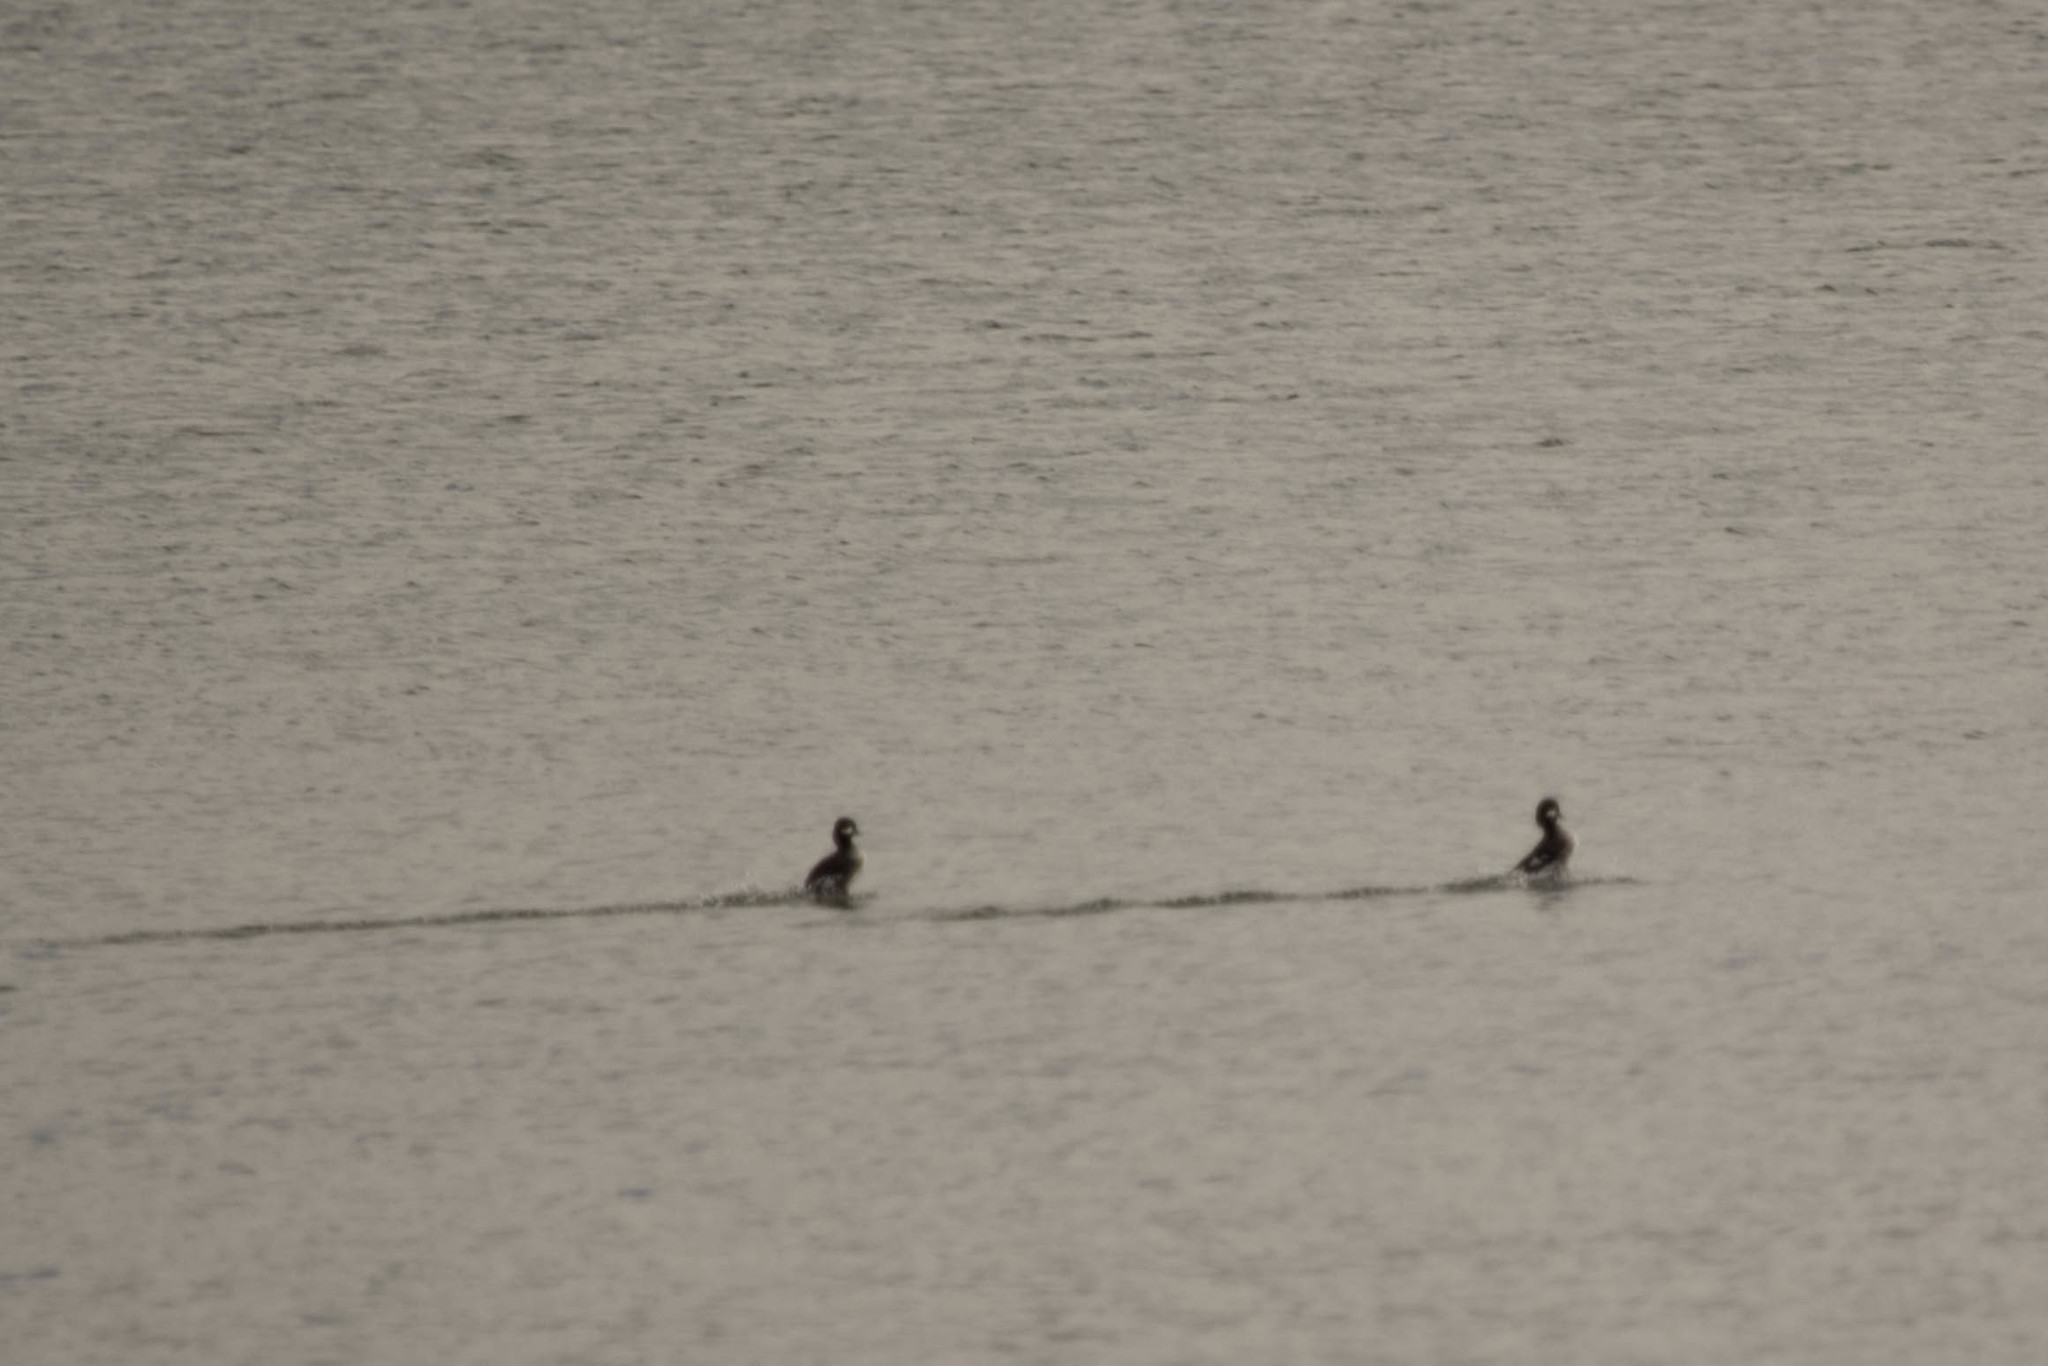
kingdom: Animalia
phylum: Chordata
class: Aves
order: Anseriformes
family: Anatidae
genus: Bucephala
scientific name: Bucephala albeola
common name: Bufflehead
